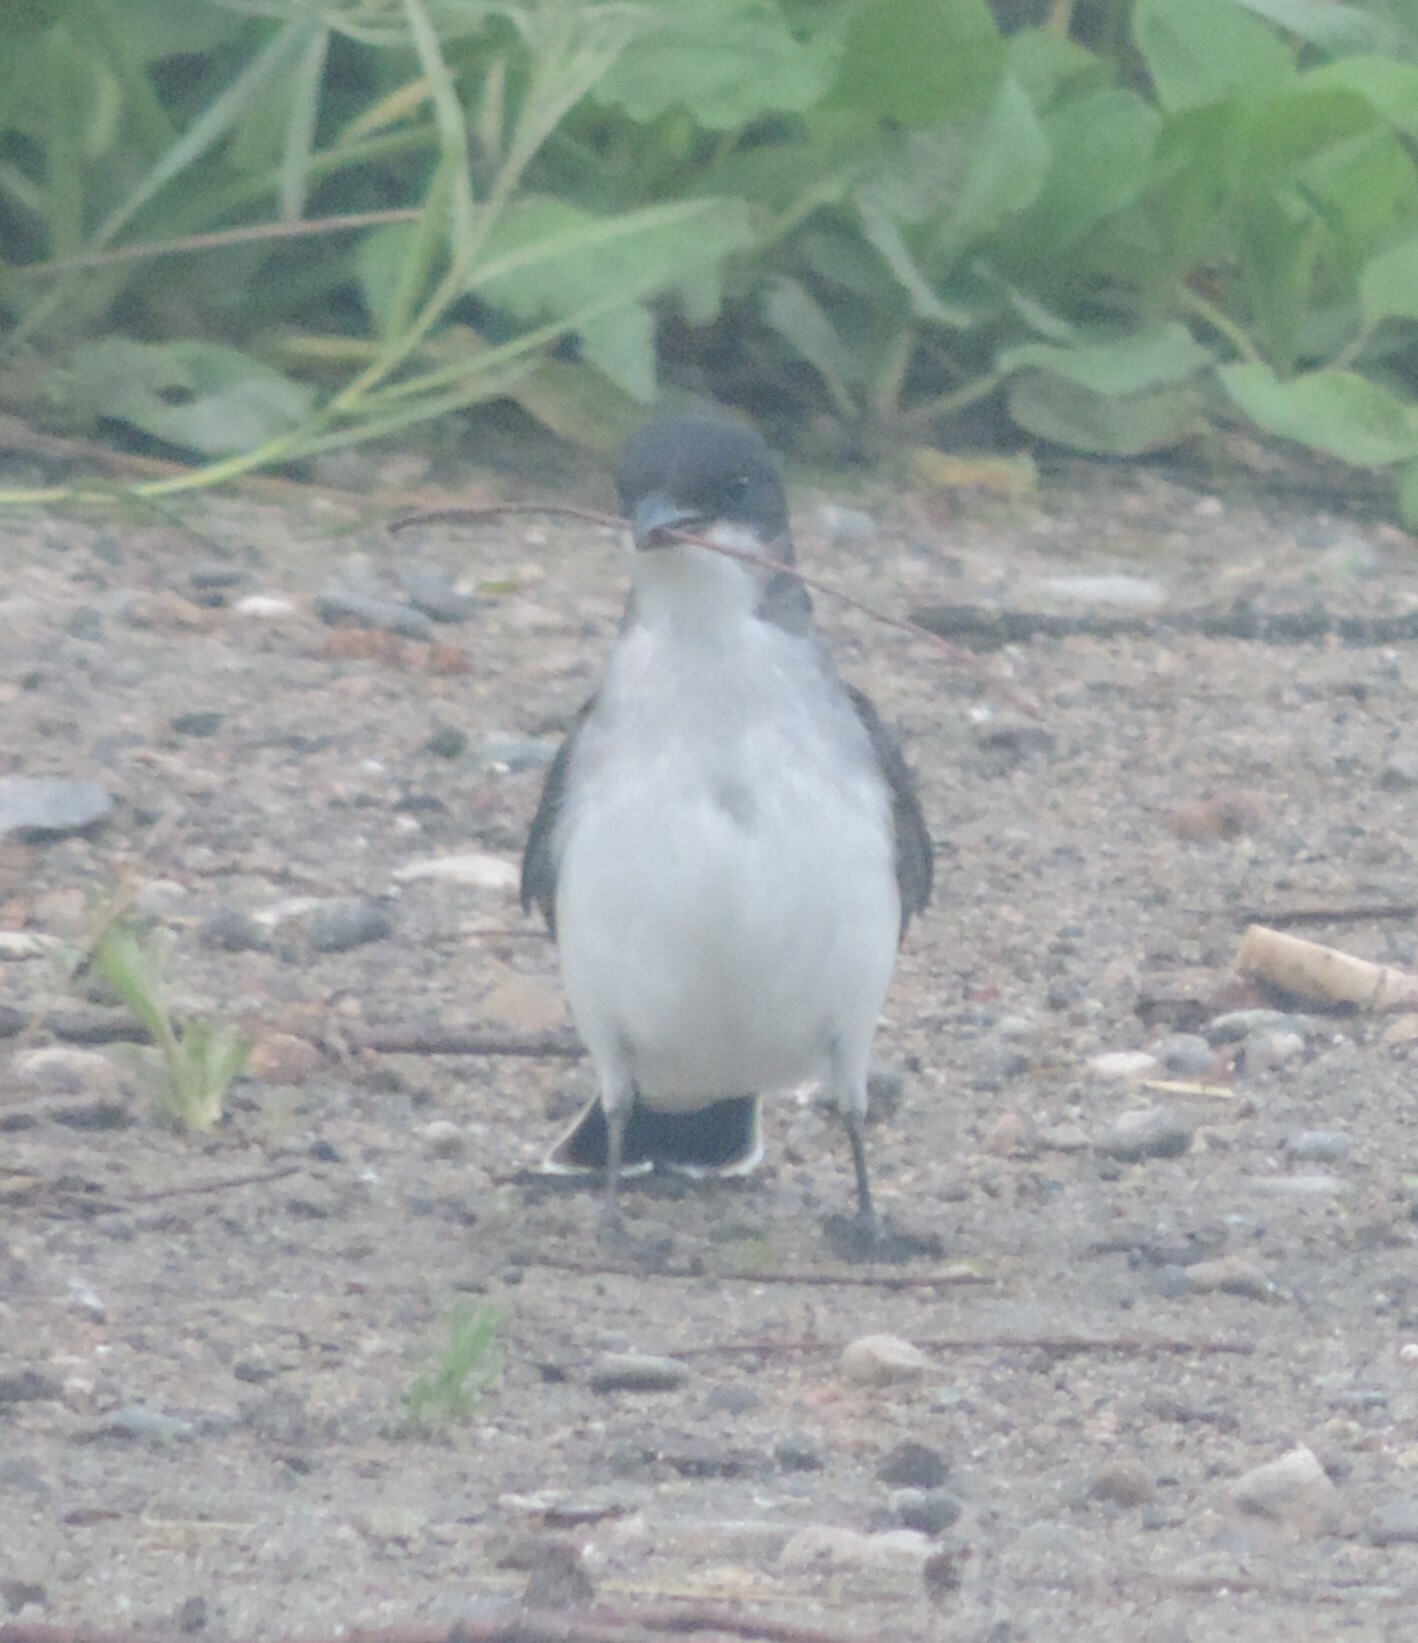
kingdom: Animalia
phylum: Chordata
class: Aves
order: Passeriformes
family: Tyrannidae
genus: Tyrannus
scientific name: Tyrannus tyrannus
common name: Eastern kingbird
